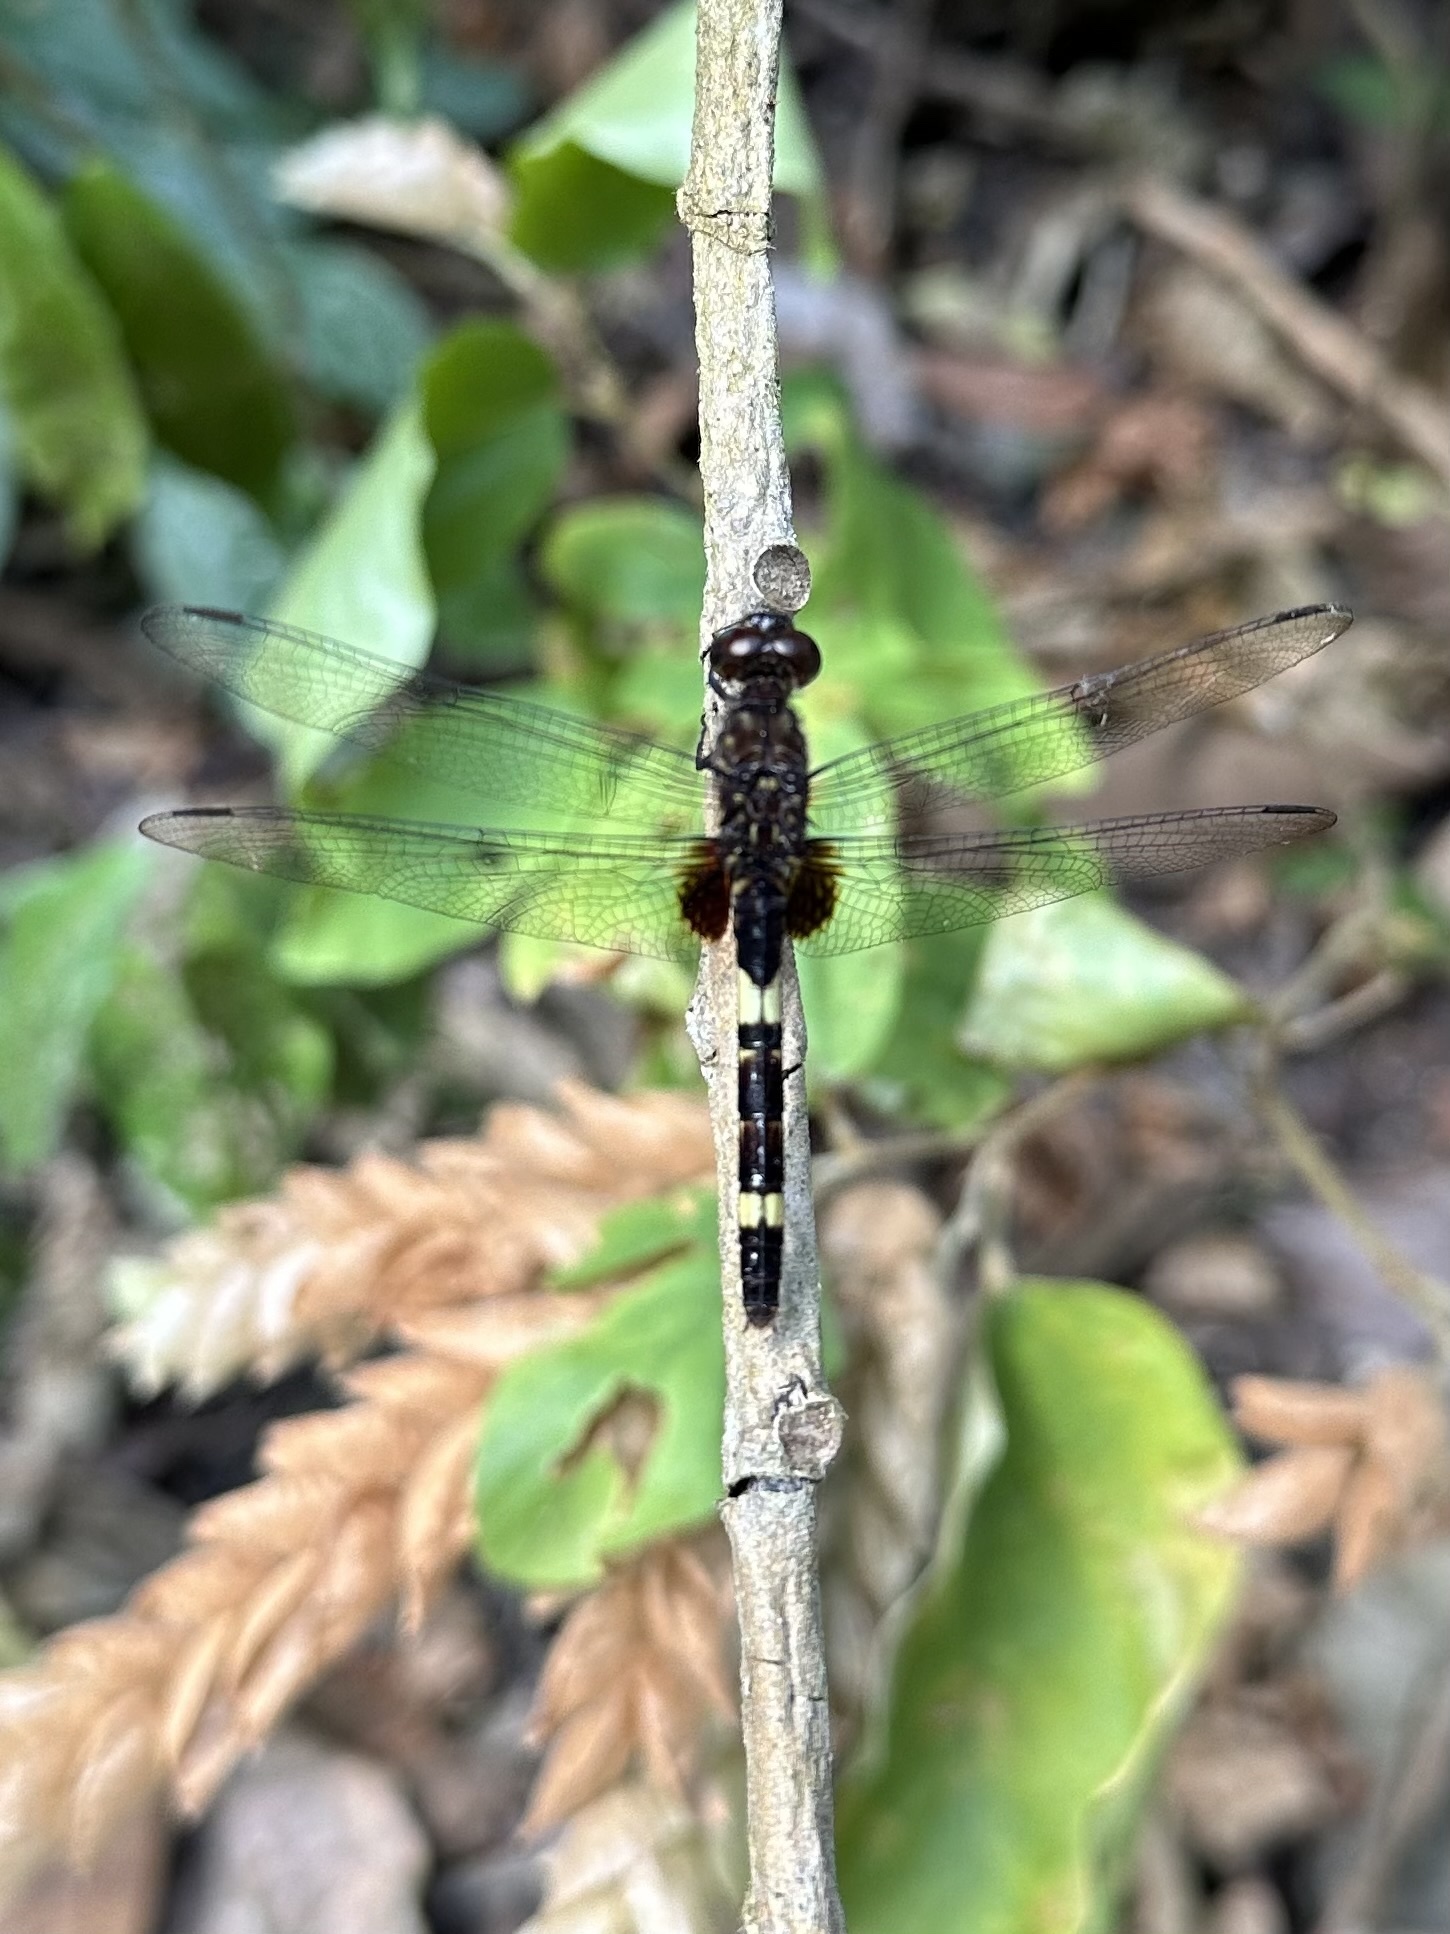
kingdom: Animalia
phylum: Arthropoda
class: Insecta
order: Odonata
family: Libellulidae
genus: Erythemis
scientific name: Erythemis attala
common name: Black pondhawk
